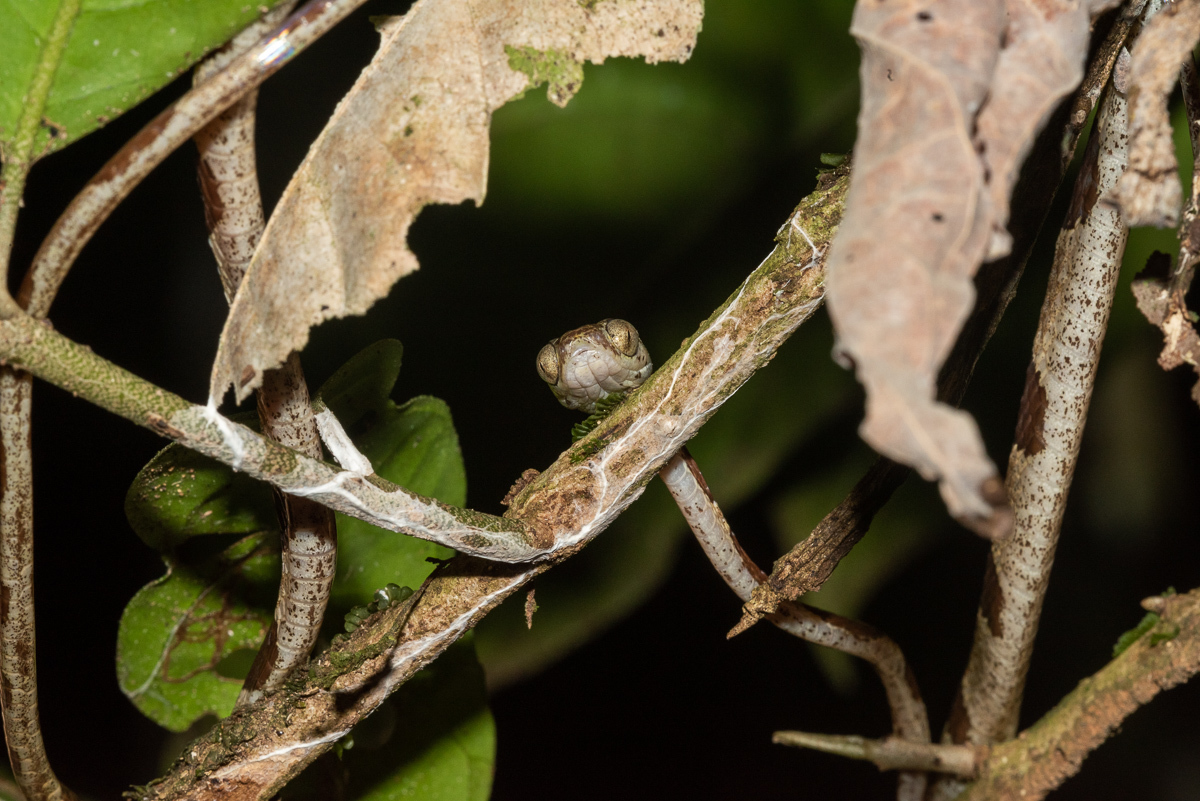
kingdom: Animalia
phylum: Chordata
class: Squamata
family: Colubridae
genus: Imantodes
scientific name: Imantodes cenchoa
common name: Blunthead tree snake
